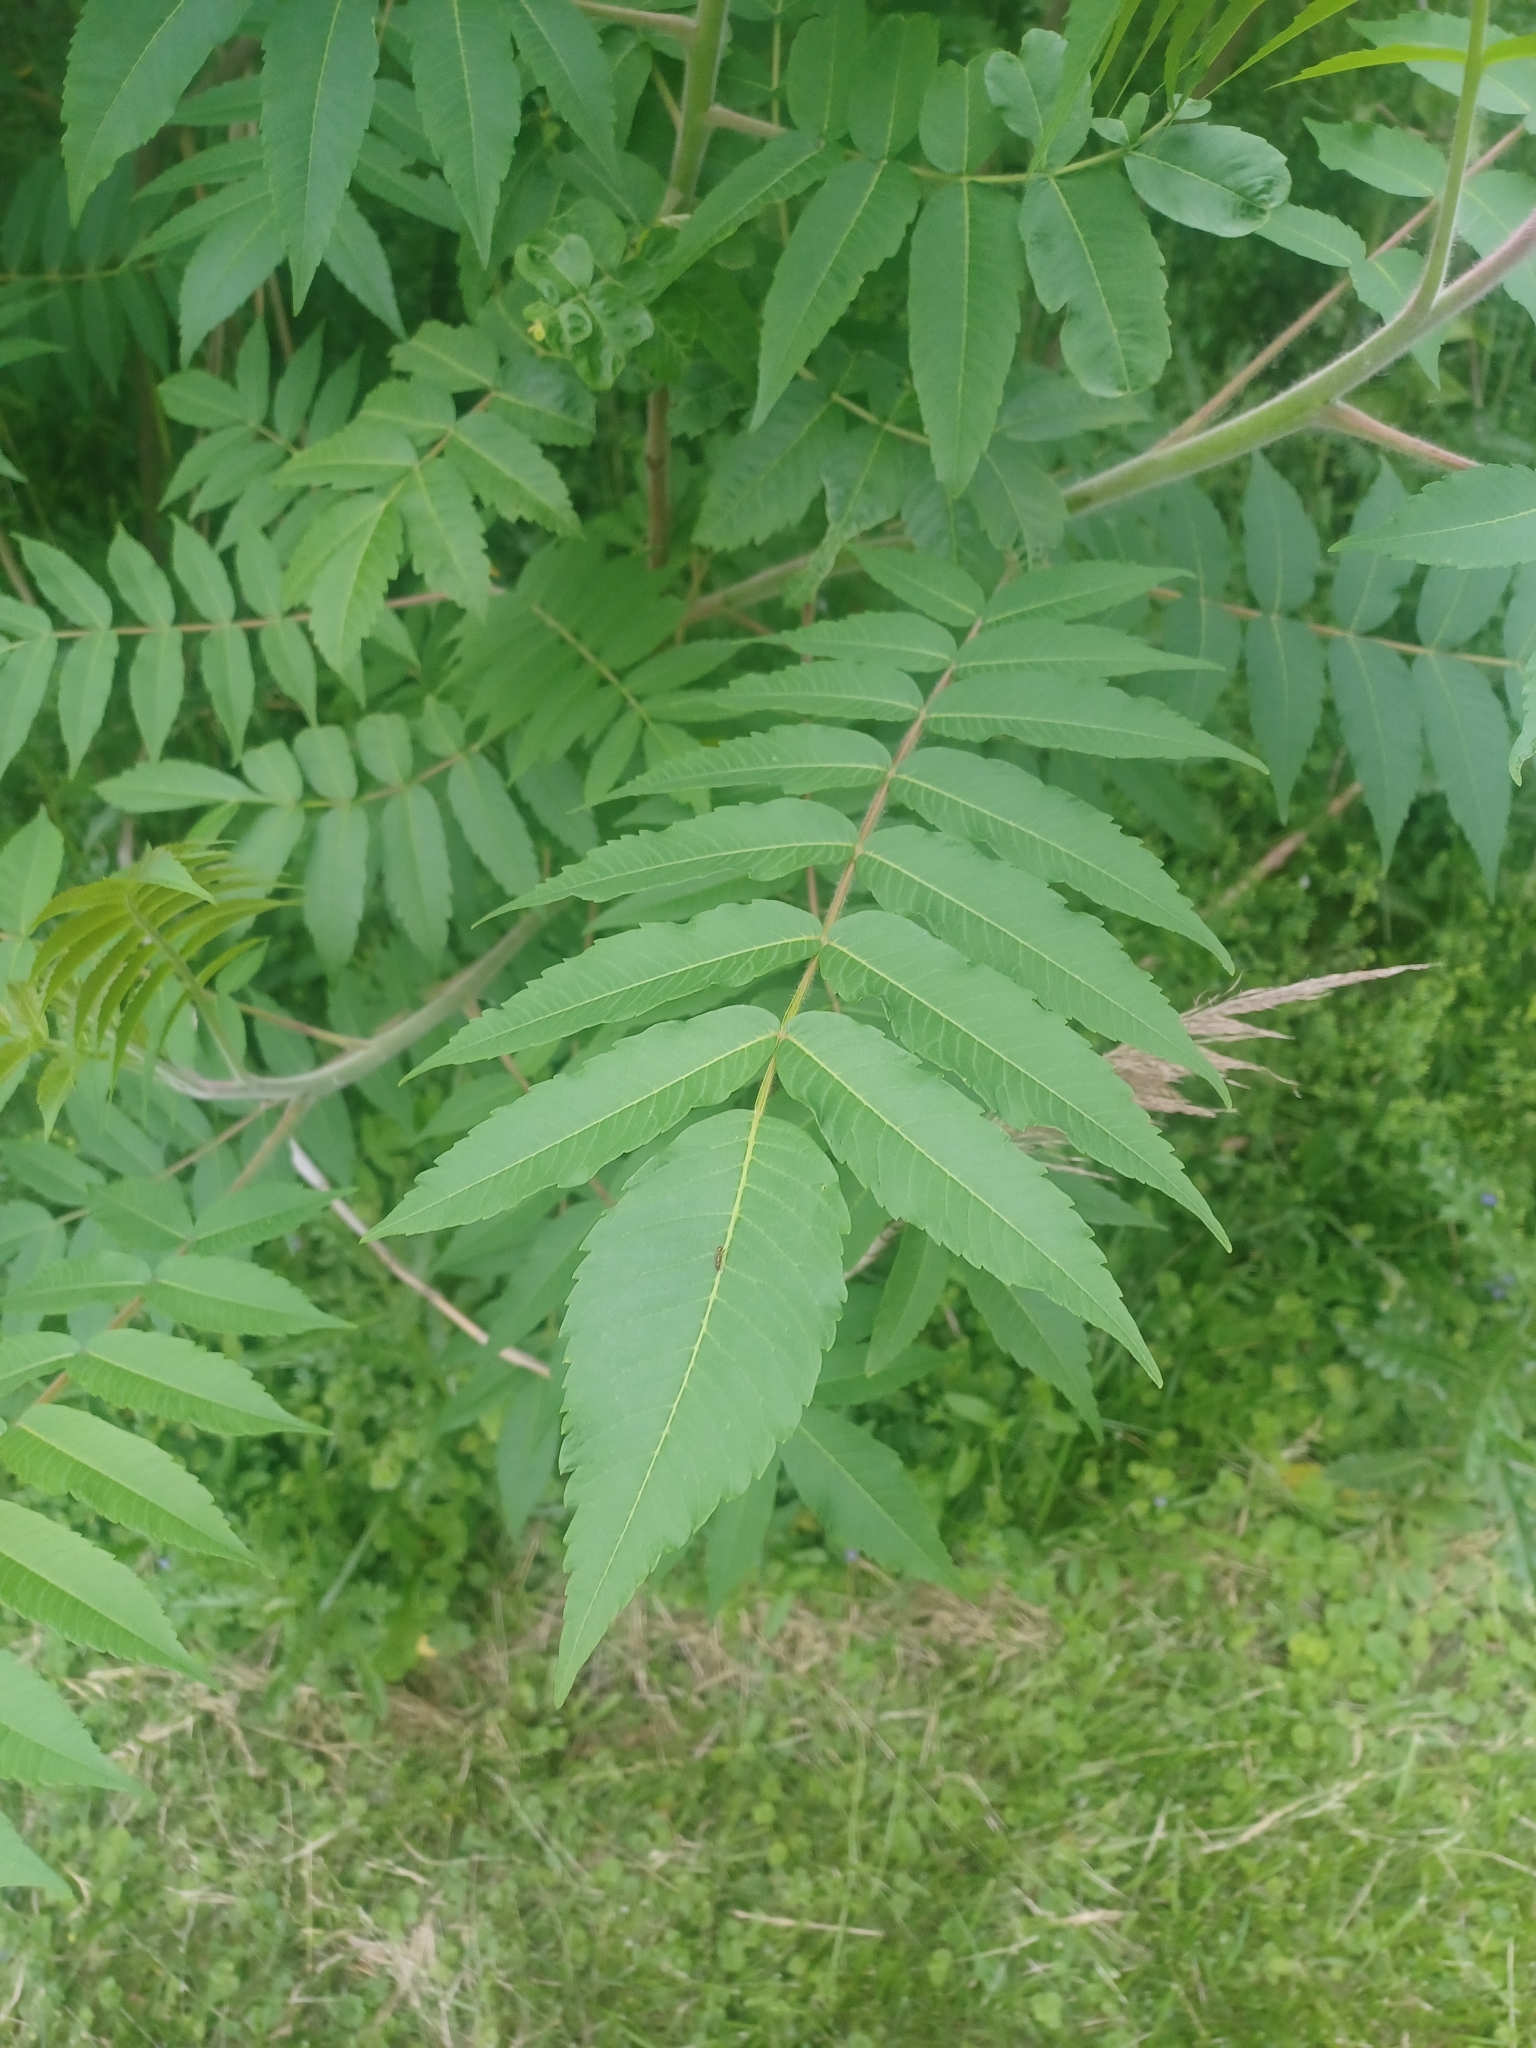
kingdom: Plantae
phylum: Tracheophyta
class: Magnoliopsida
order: Sapindales
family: Anacardiaceae
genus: Rhus
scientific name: Rhus typhina
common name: Staghorn sumac
